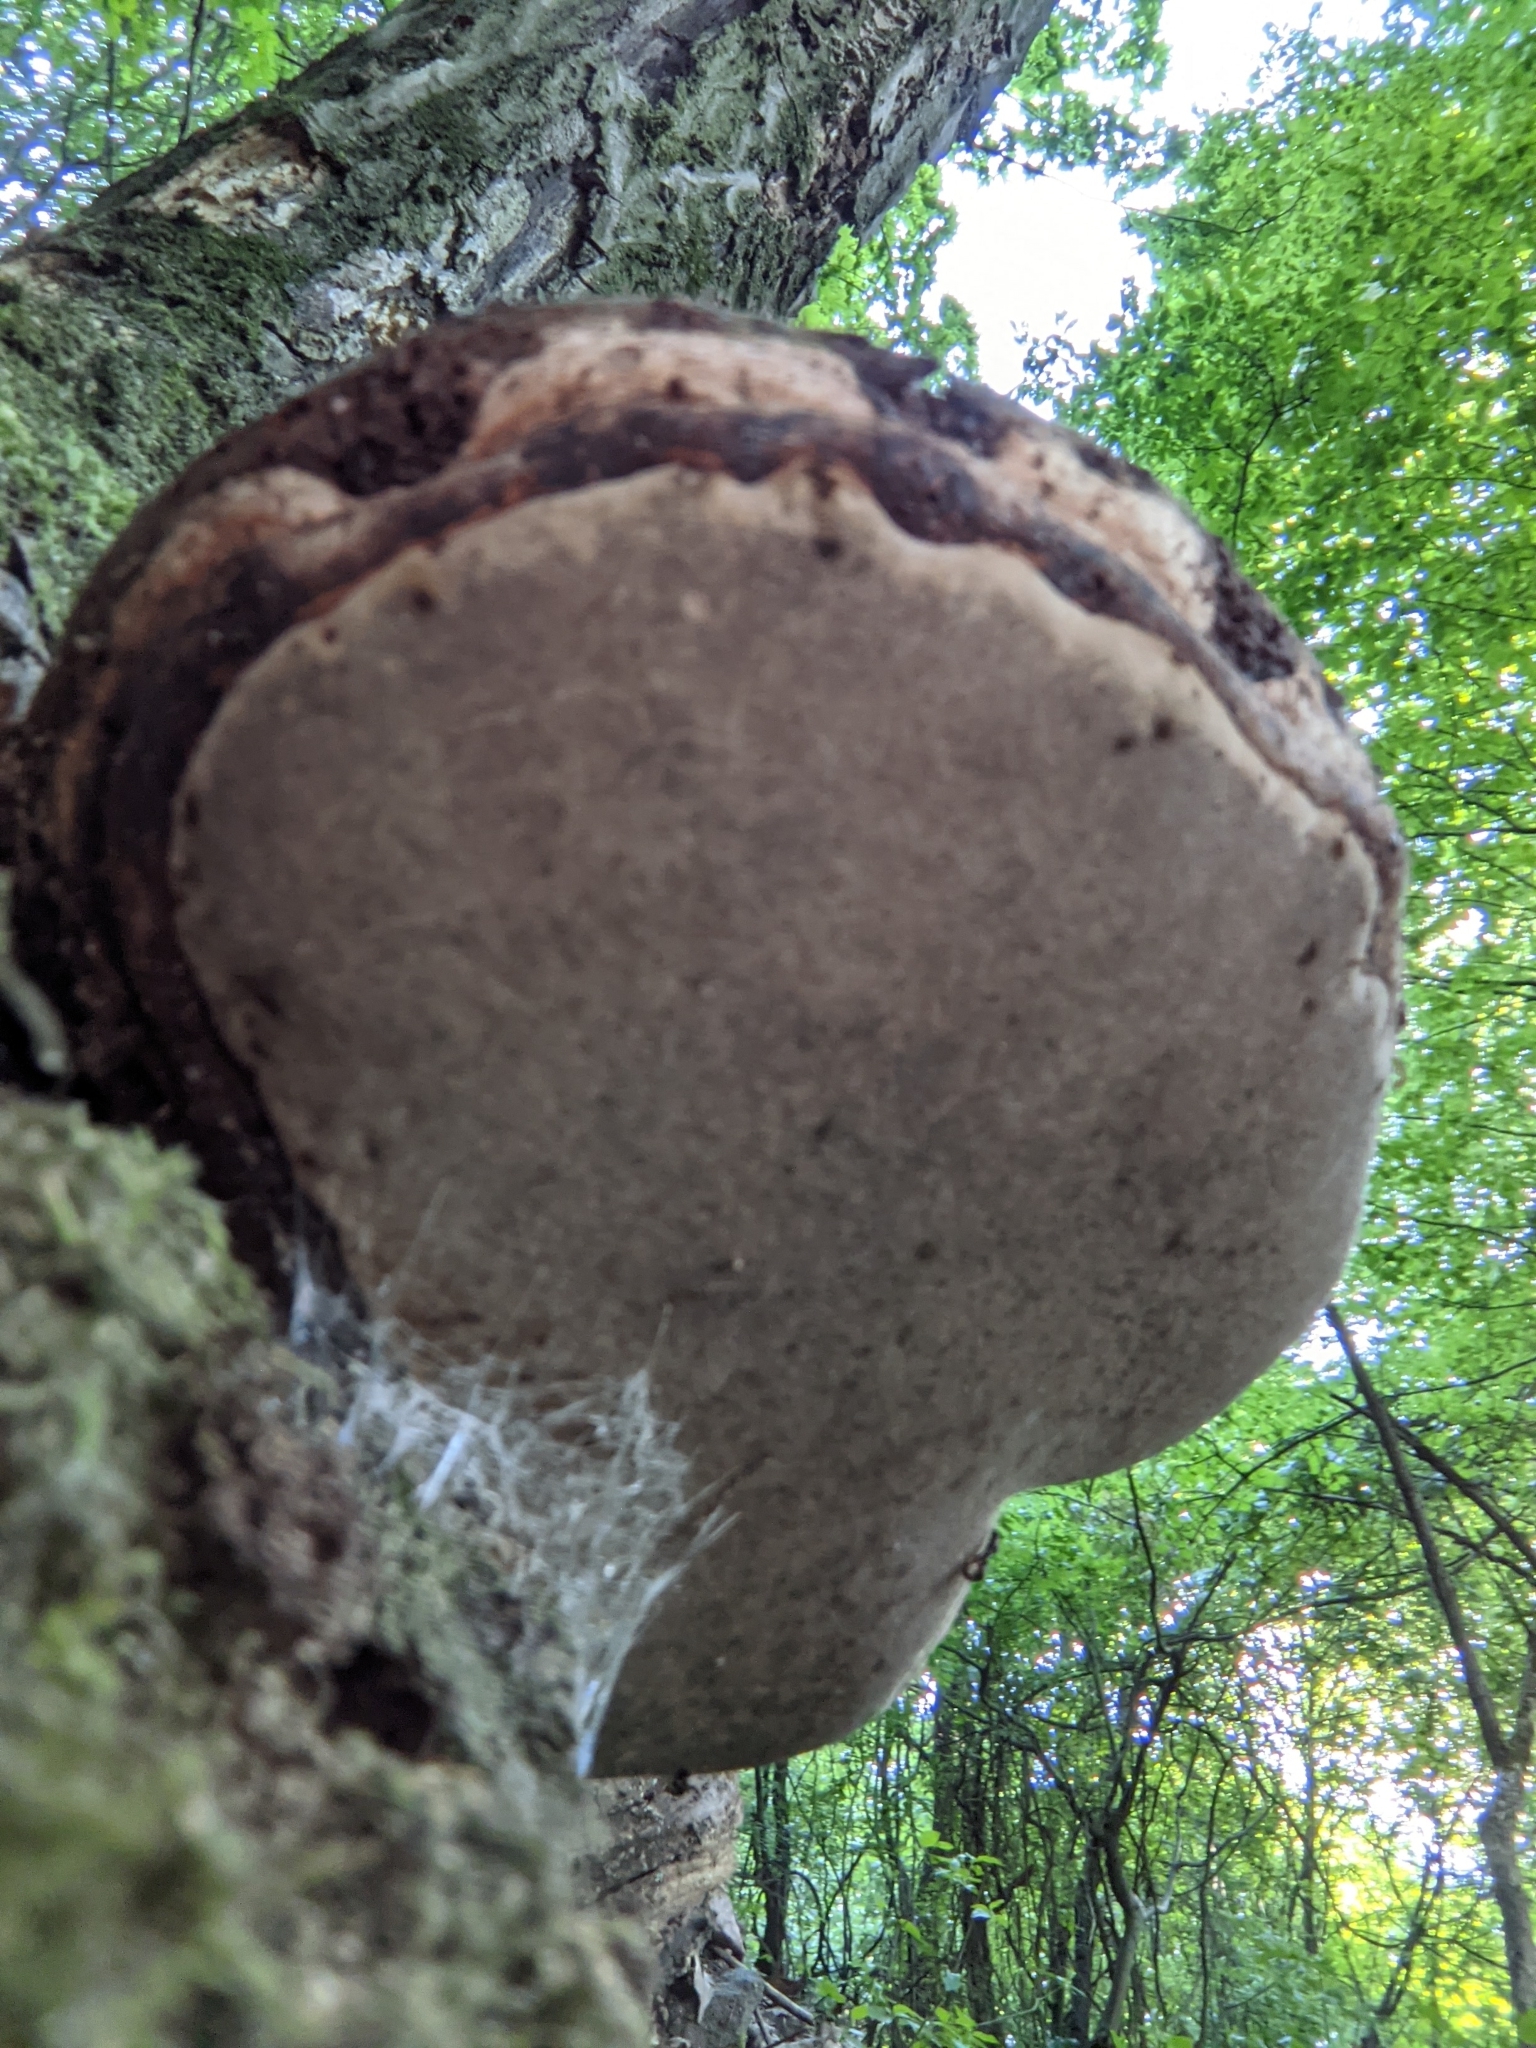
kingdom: Fungi
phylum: Basidiomycota
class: Agaricomycetes
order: Polyporales
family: Polyporaceae
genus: Fomes
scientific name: Fomes fomentarius
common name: Hoof fungus
